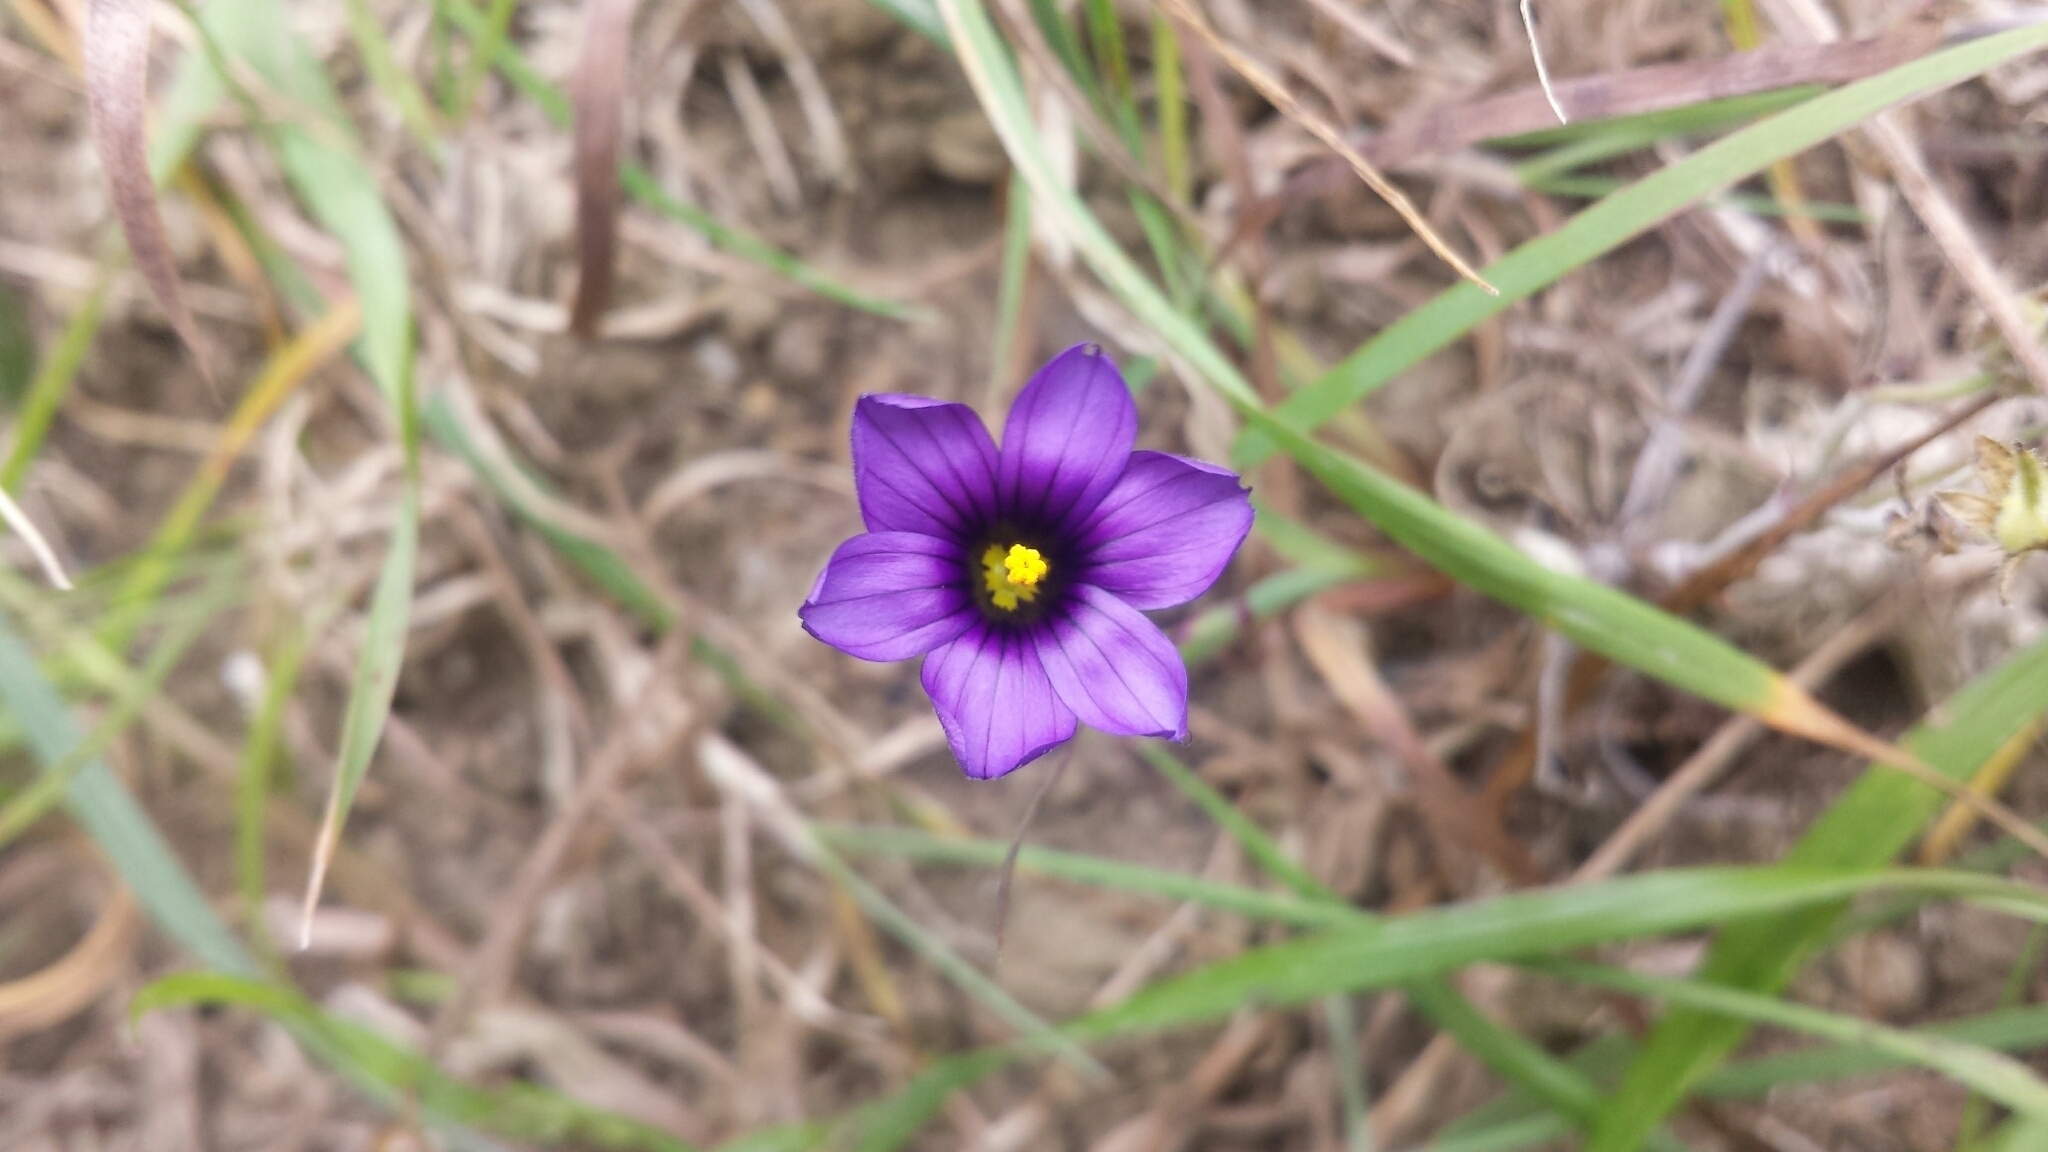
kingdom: Plantae
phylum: Tracheophyta
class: Liliopsida
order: Asparagales
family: Iridaceae
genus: Sisyrinchium
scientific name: Sisyrinchium bellum
